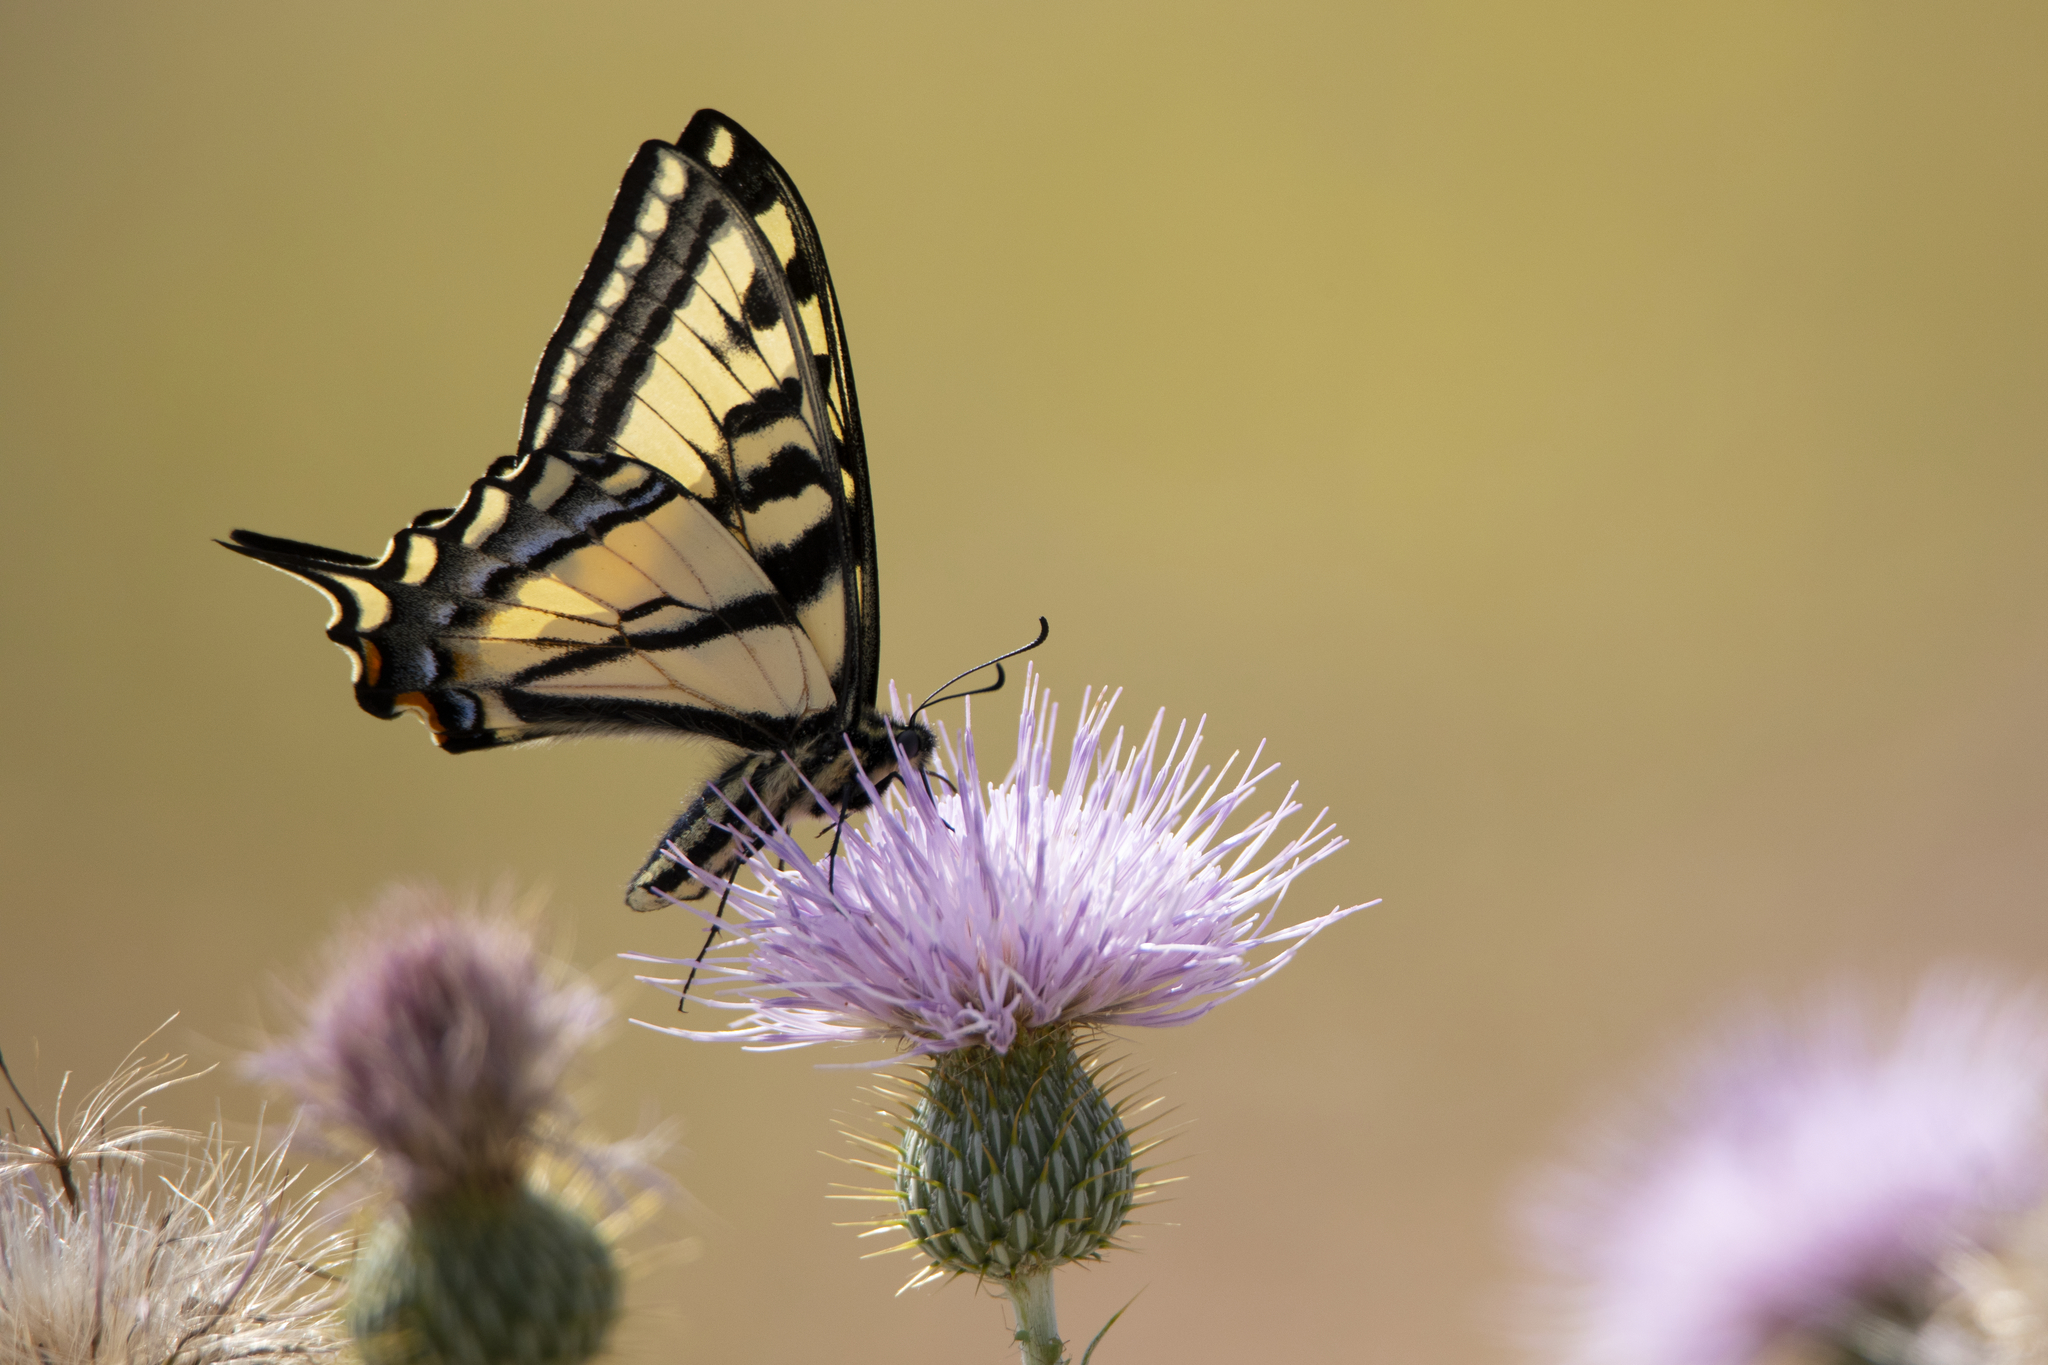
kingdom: Animalia
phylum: Arthropoda
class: Insecta
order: Lepidoptera
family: Papilionidae
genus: Papilio
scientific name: Papilio rutulus
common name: Western tiger swallowtail
